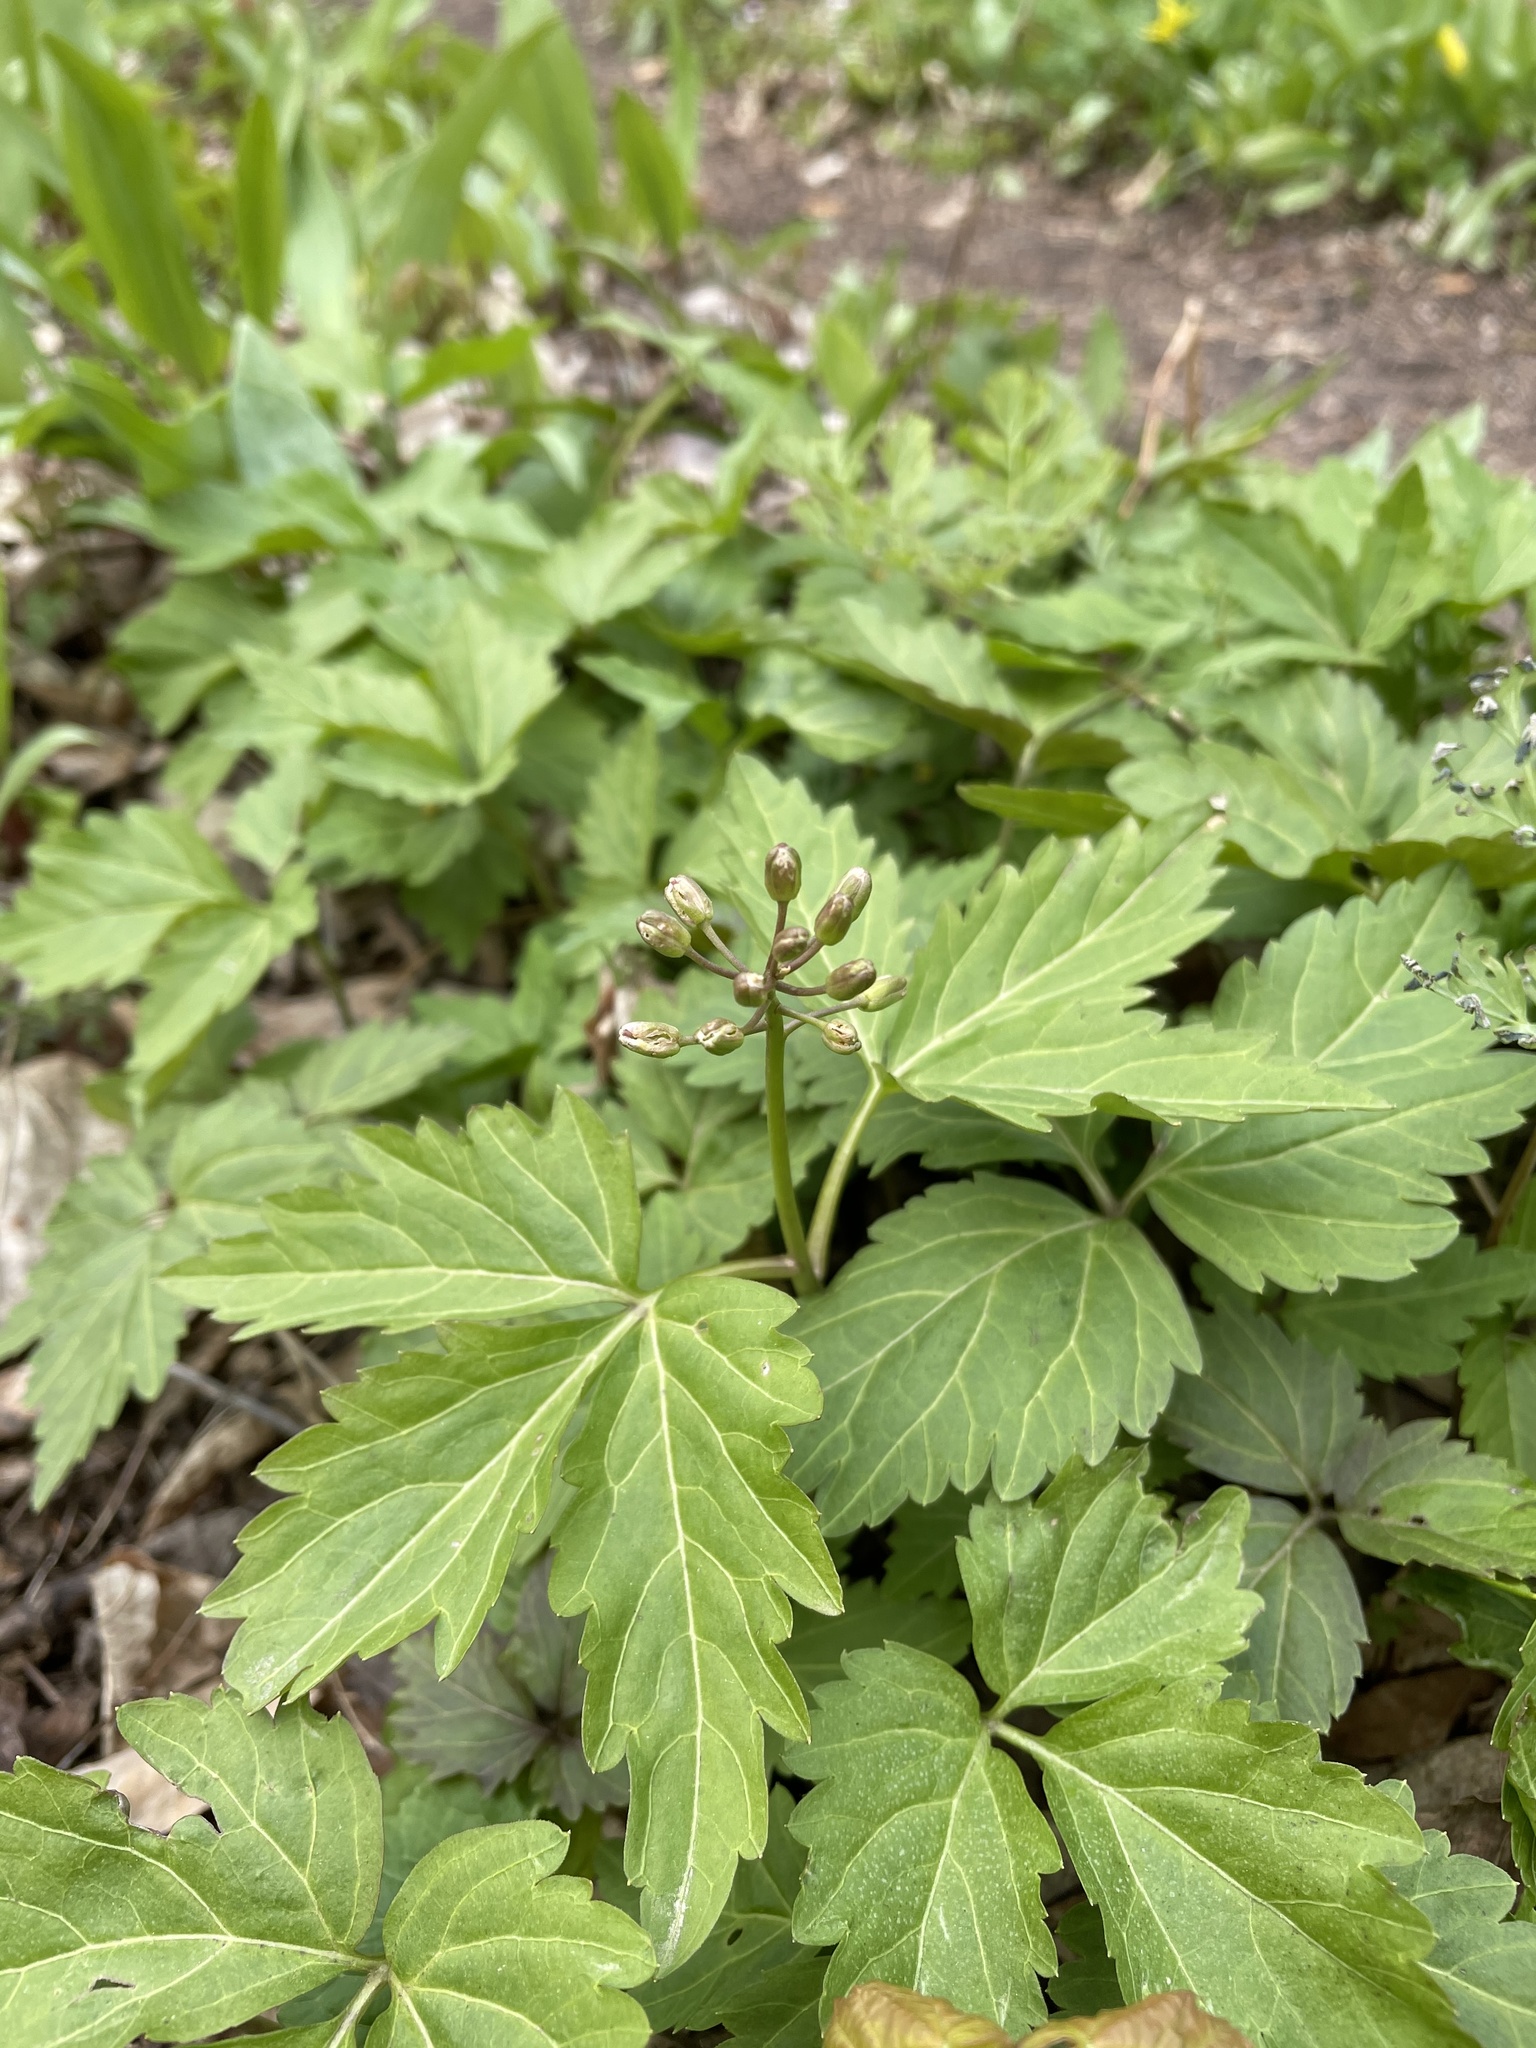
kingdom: Plantae
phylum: Tracheophyta
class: Magnoliopsida
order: Brassicales
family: Brassicaceae
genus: Cardamine
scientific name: Cardamine diphylla
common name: Broad-leaved toothwort
